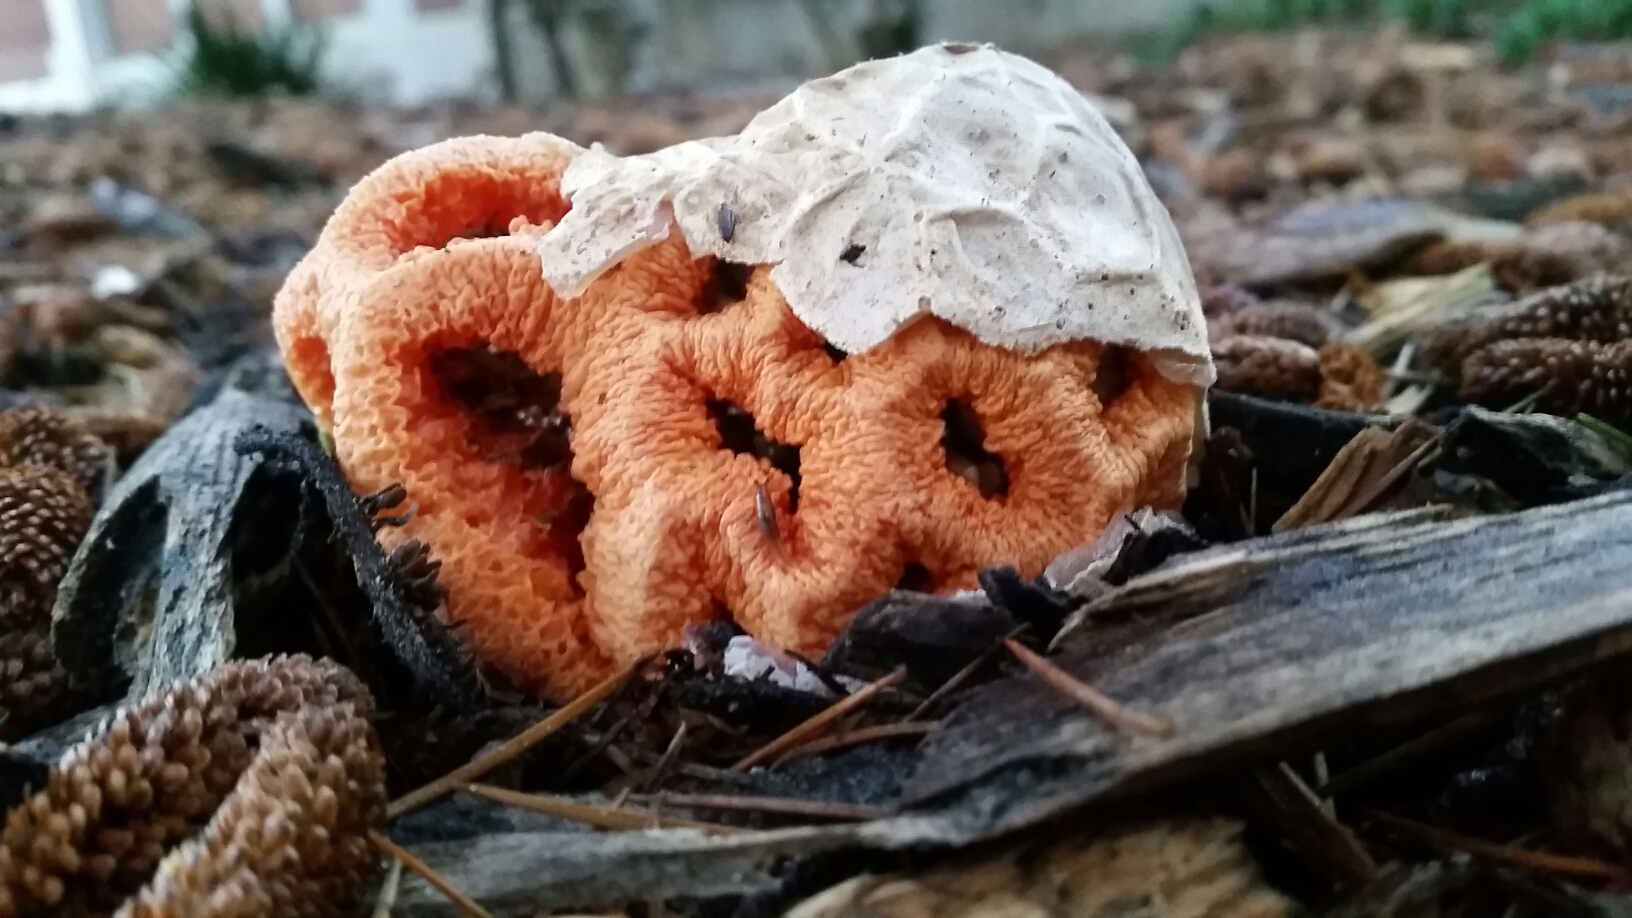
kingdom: Fungi
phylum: Basidiomycota
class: Agaricomycetes
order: Phallales
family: Phallaceae
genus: Clathrus
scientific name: Clathrus ruber
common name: Red cage
